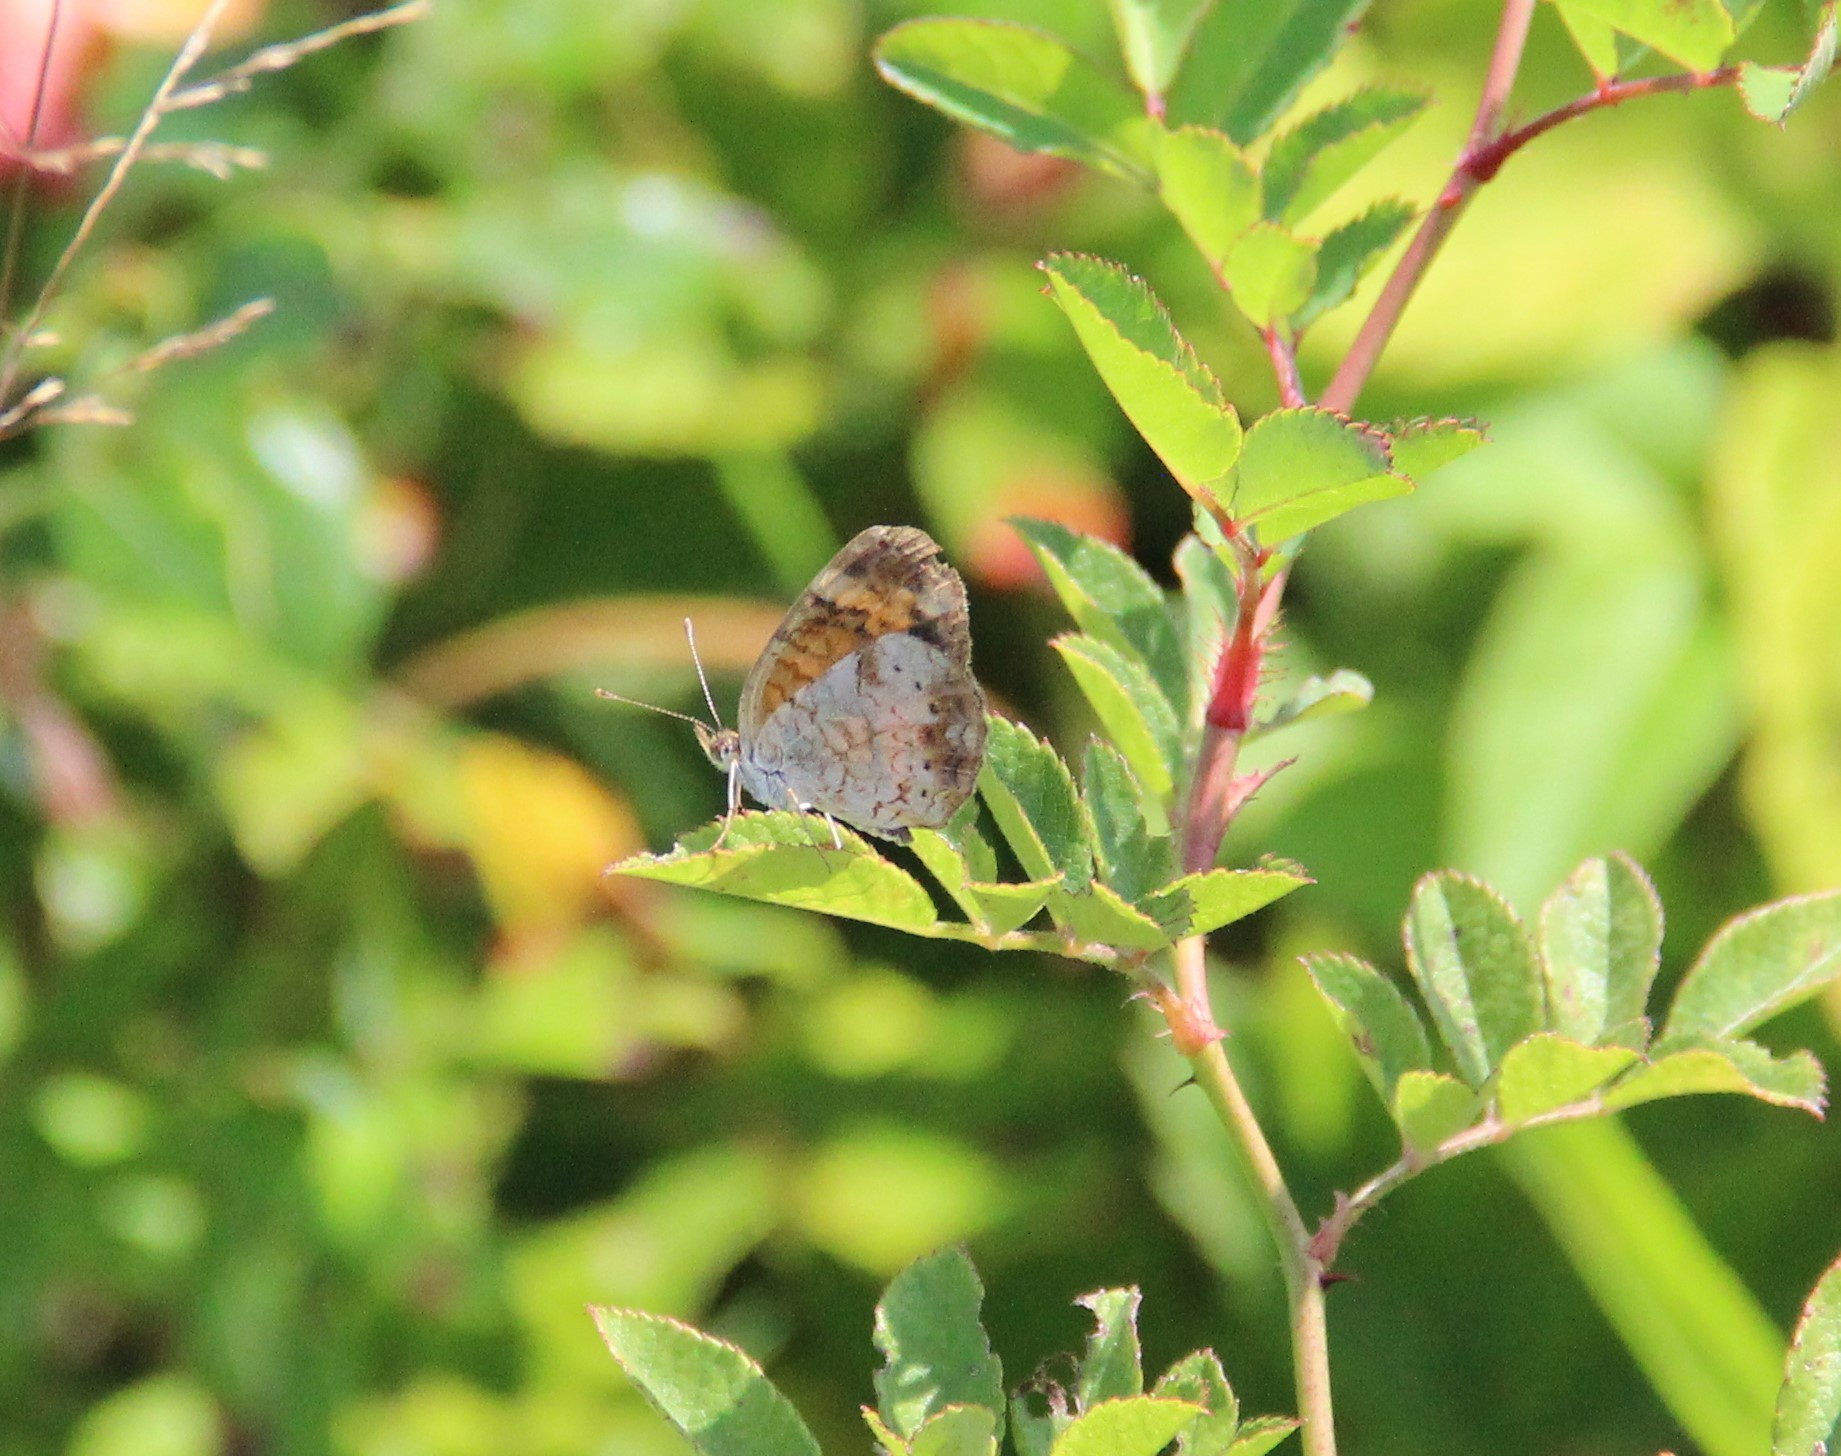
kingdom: Animalia
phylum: Arthropoda
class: Insecta
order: Lepidoptera
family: Nymphalidae
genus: Phyciodes
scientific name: Phyciodes tharos
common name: Pearl crescent
